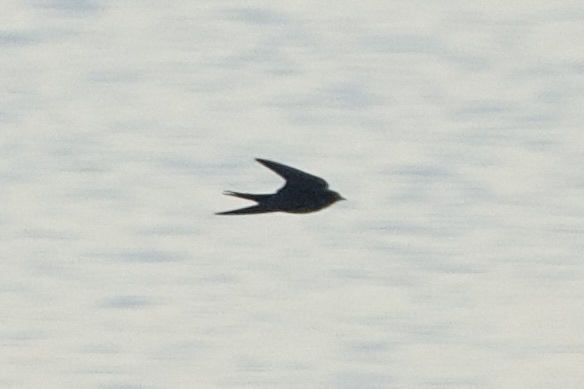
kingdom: Animalia
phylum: Chordata
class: Aves
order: Passeriformes
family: Hirundinidae
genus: Hirundo
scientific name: Hirundo rustica
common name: Barn swallow
